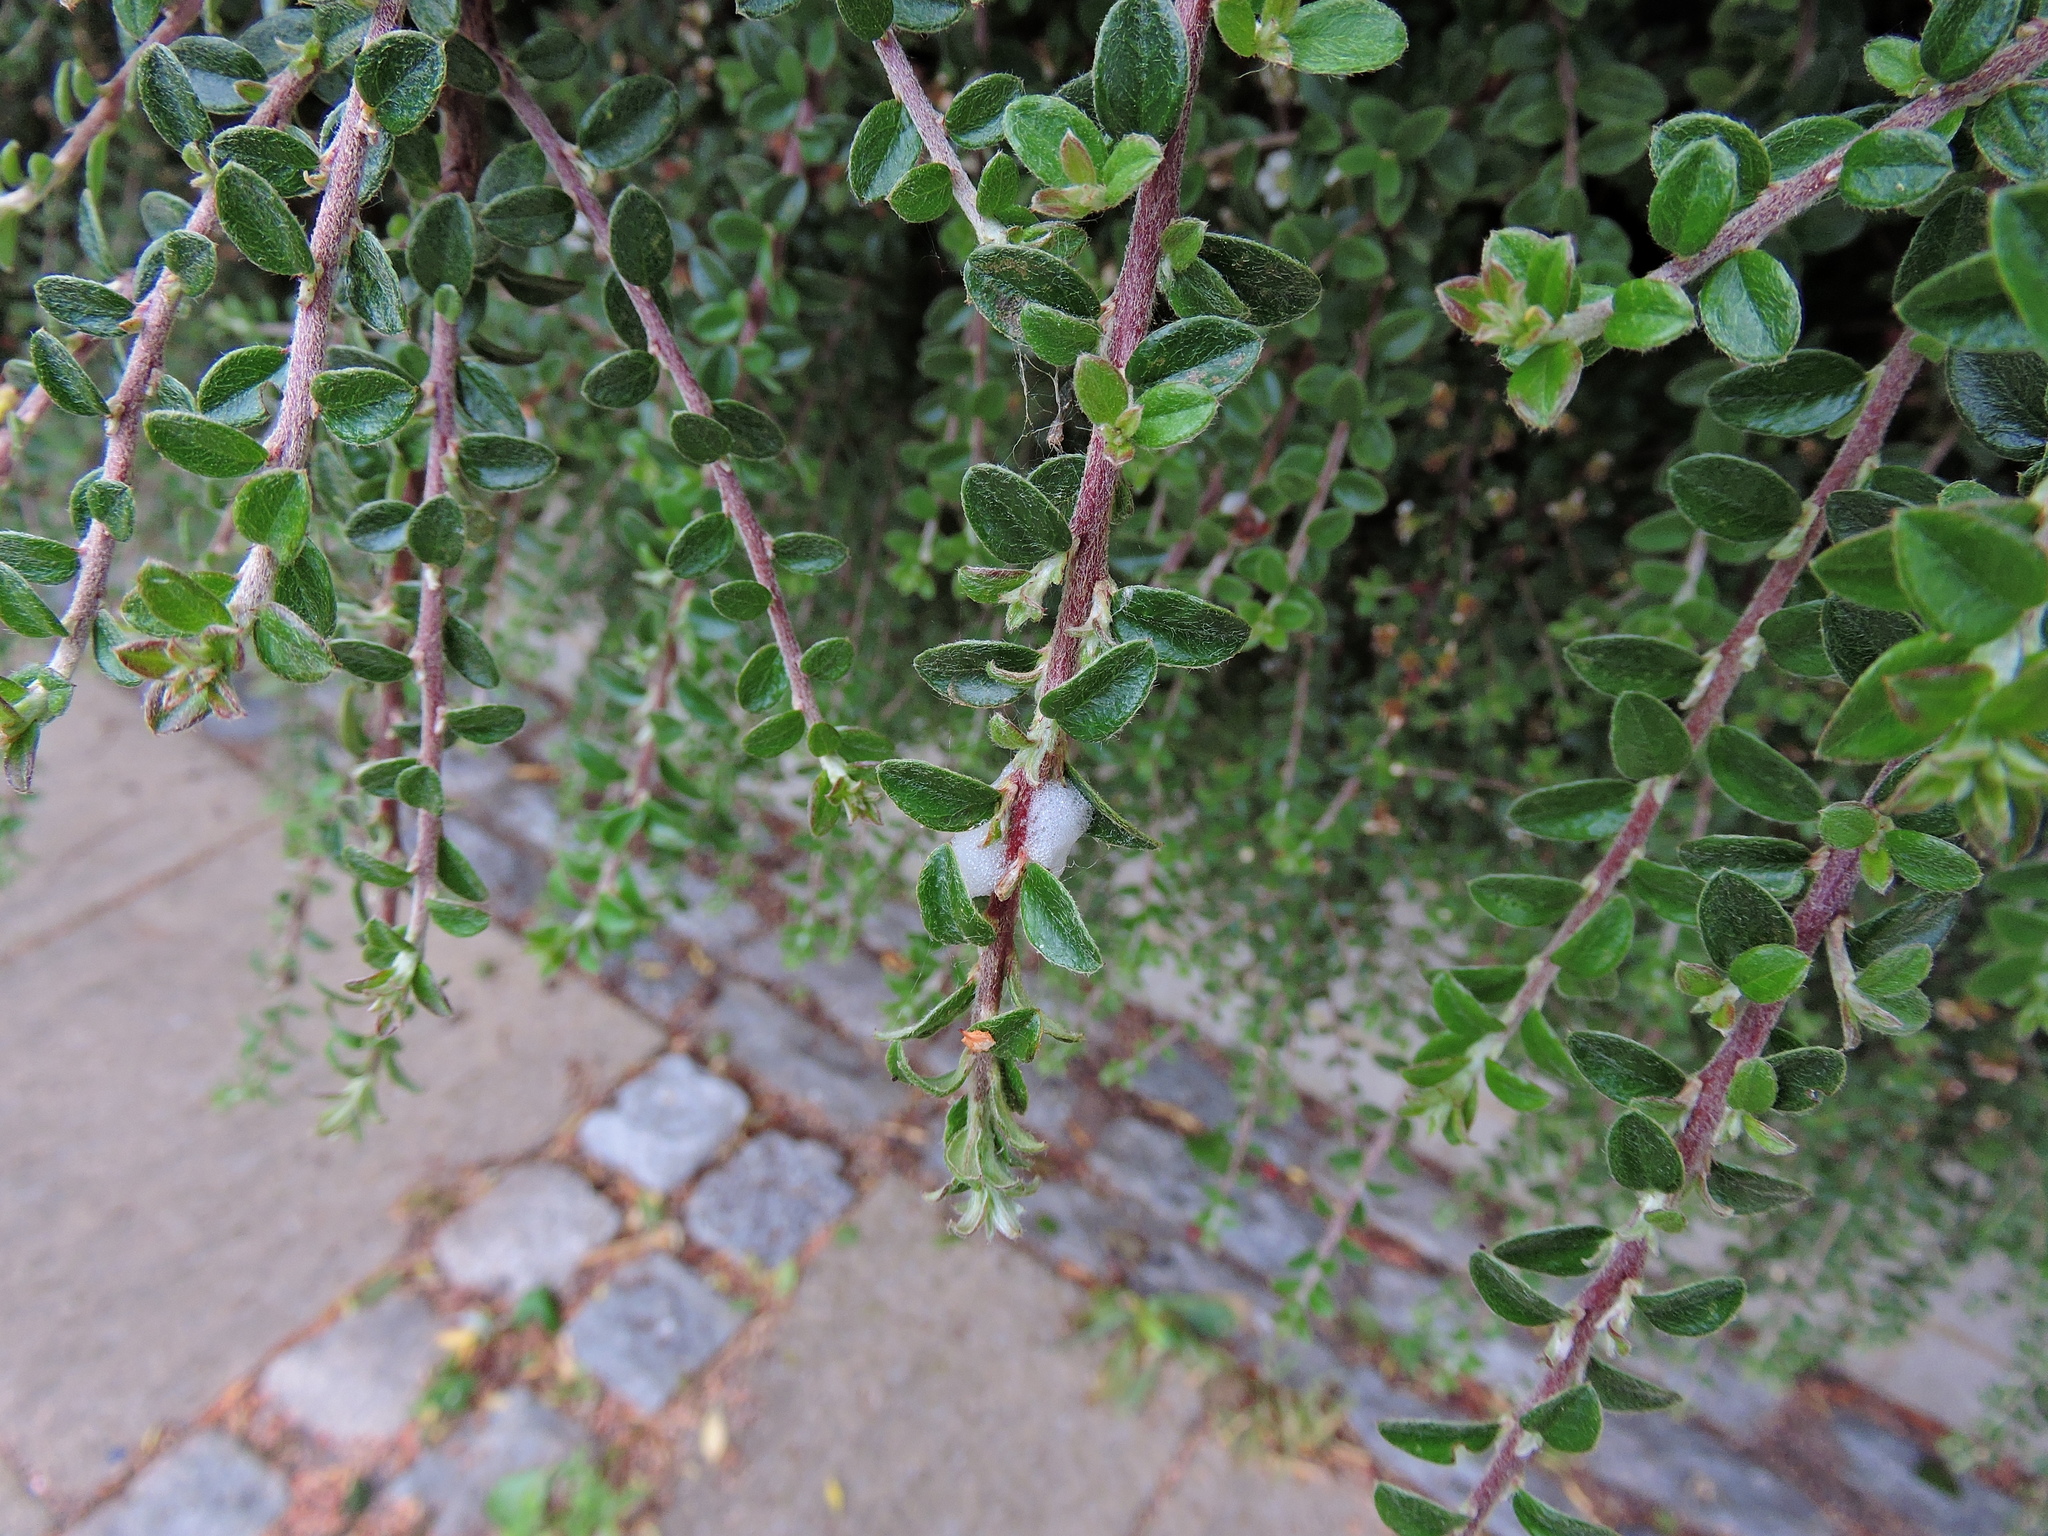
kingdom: Animalia
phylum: Arthropoda
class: Insecta
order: Hemiptera
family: Aphrophoridae
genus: Philaenus
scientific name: Philaenus spumarius
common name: Meadow spittlebug
